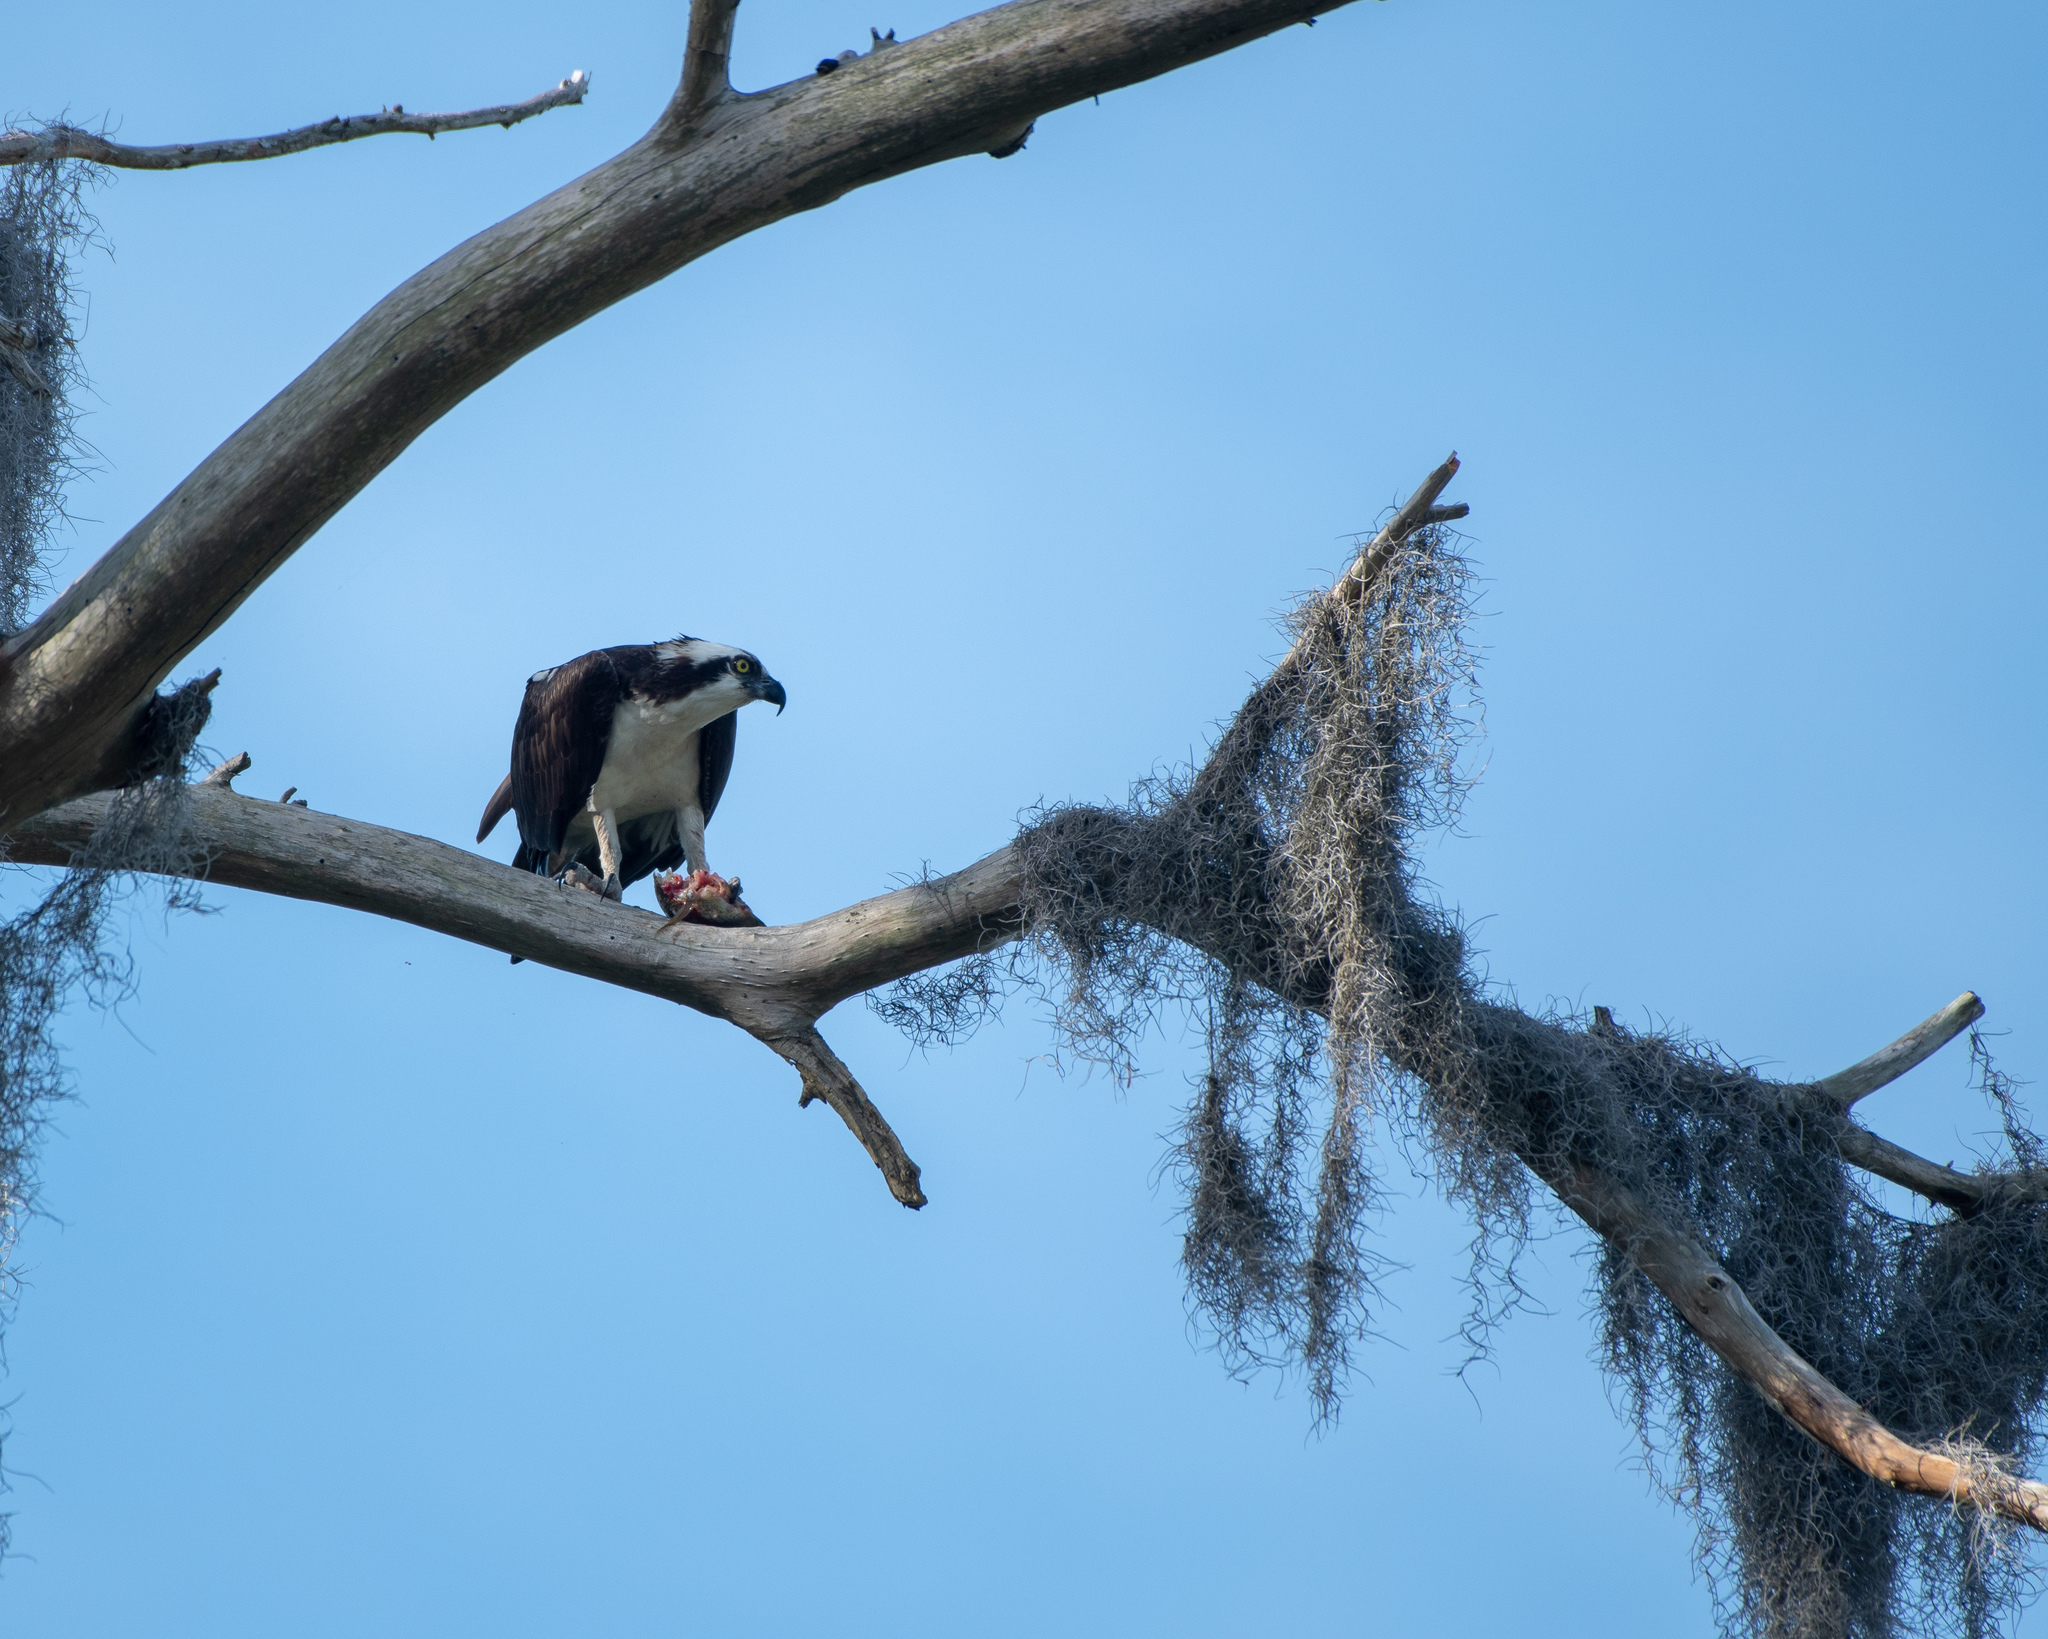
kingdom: Animalia
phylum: Chordata
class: Aves
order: Accipitriformes
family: Pandionidae
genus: Pandion
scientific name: Pandion haliaetus
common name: Osprey
